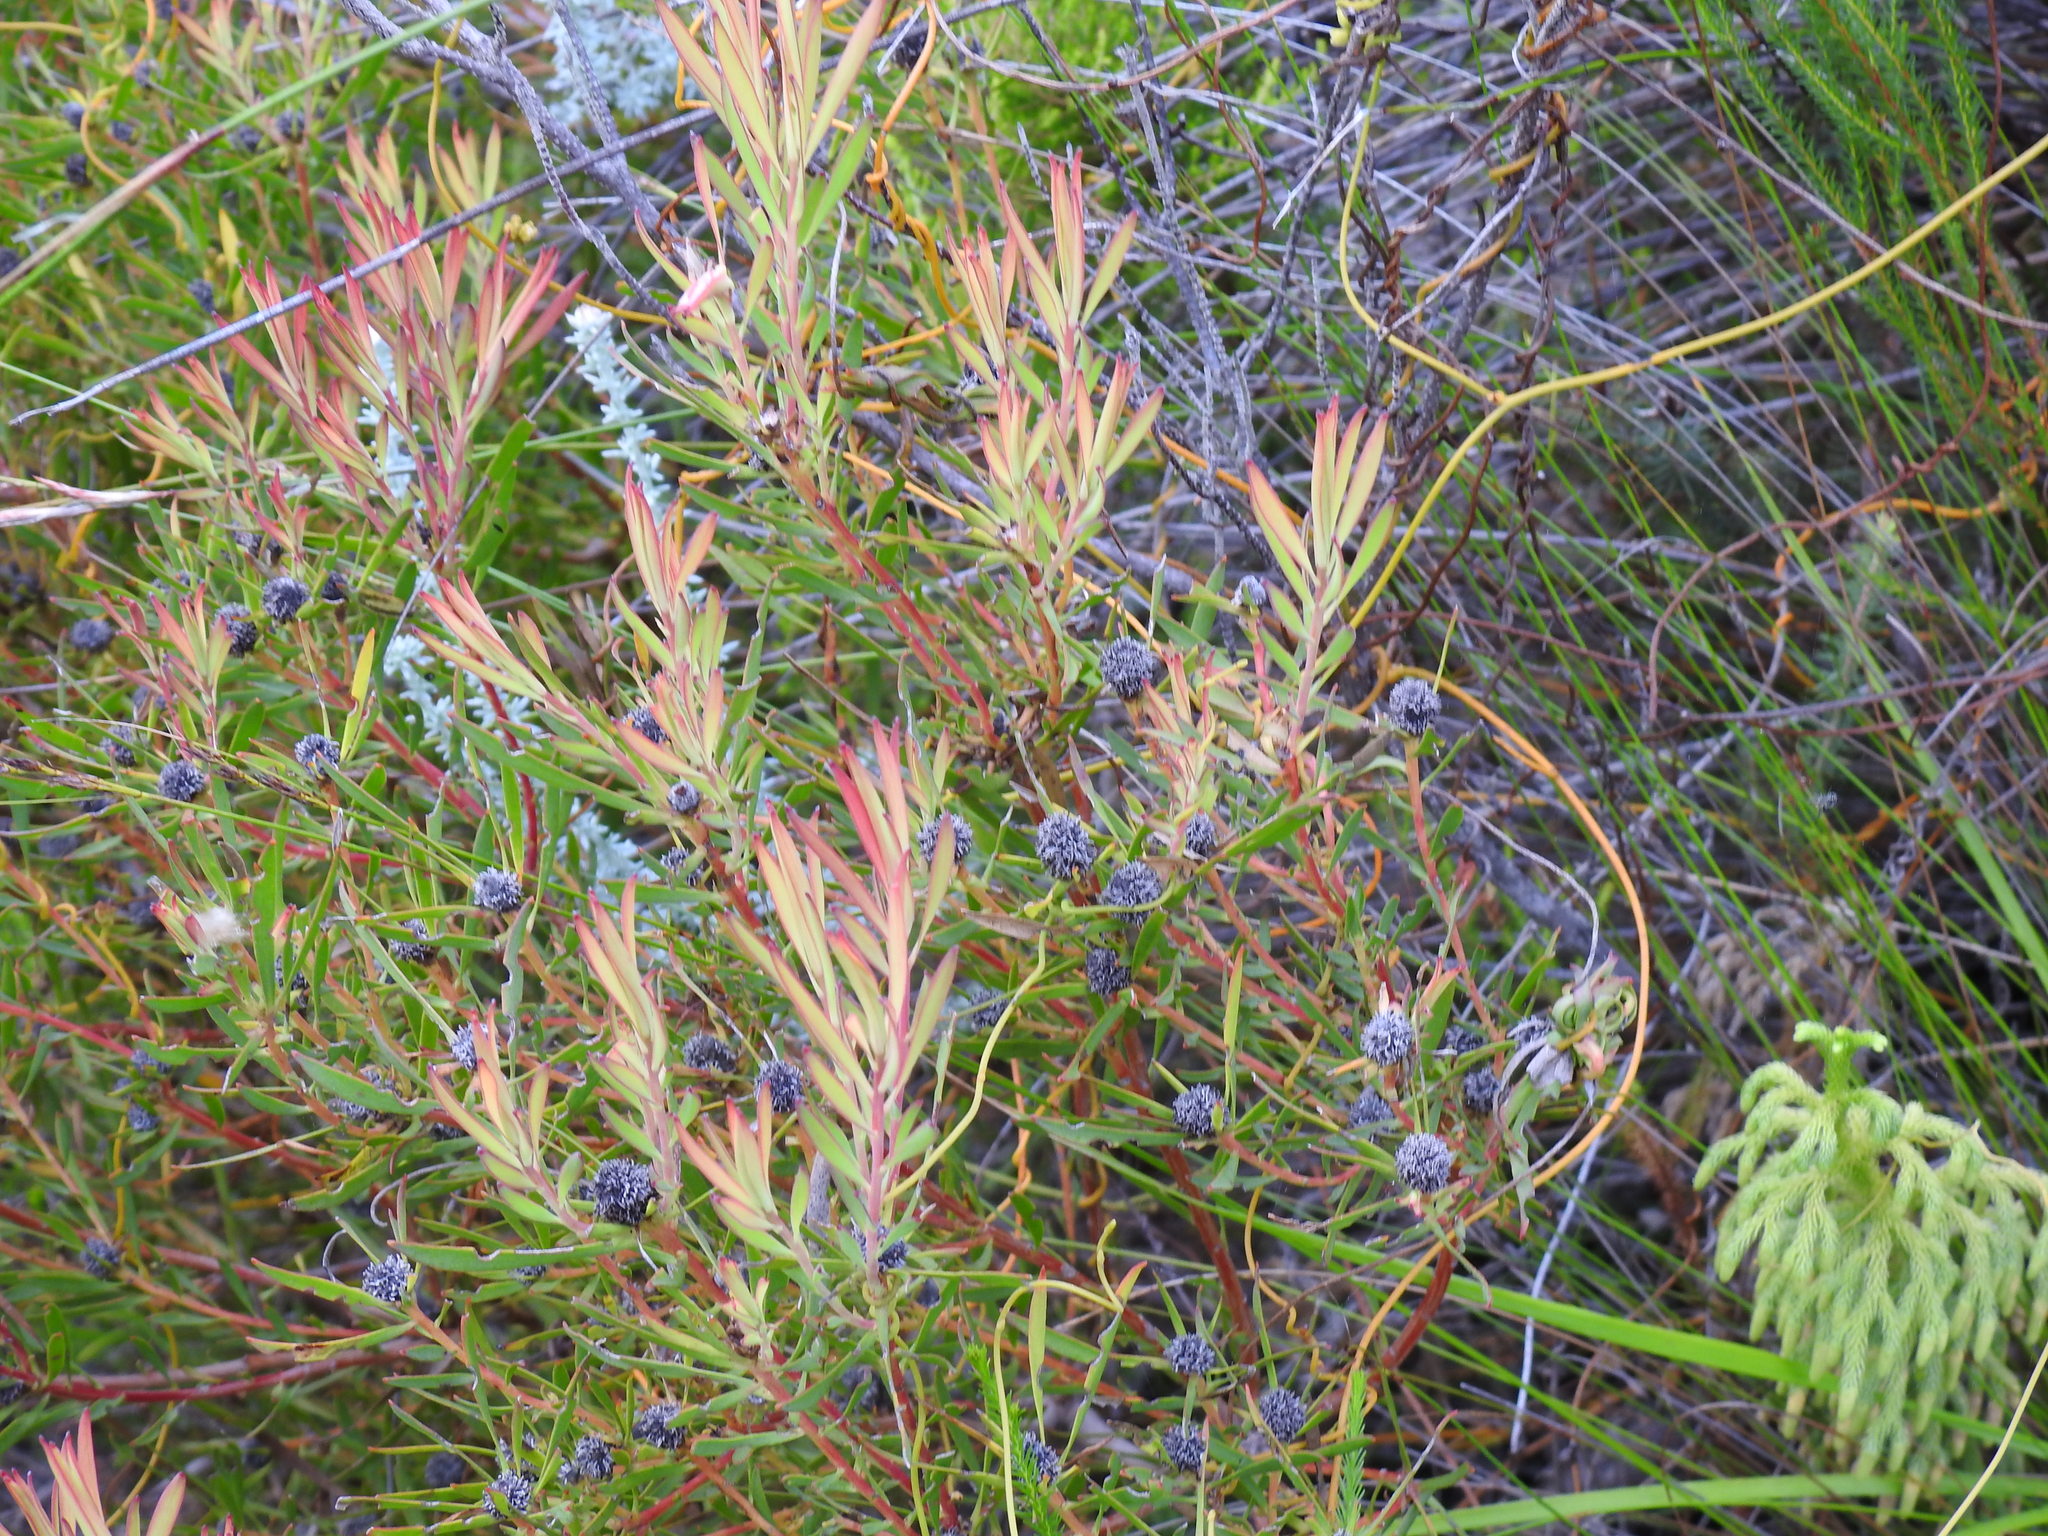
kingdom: Plantae
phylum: Tracheophyta
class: Magnoliopsida
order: Proteales
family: Proteaceae
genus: Leucadendron
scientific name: Leucadendron salignum
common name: Common sunshine conebush
